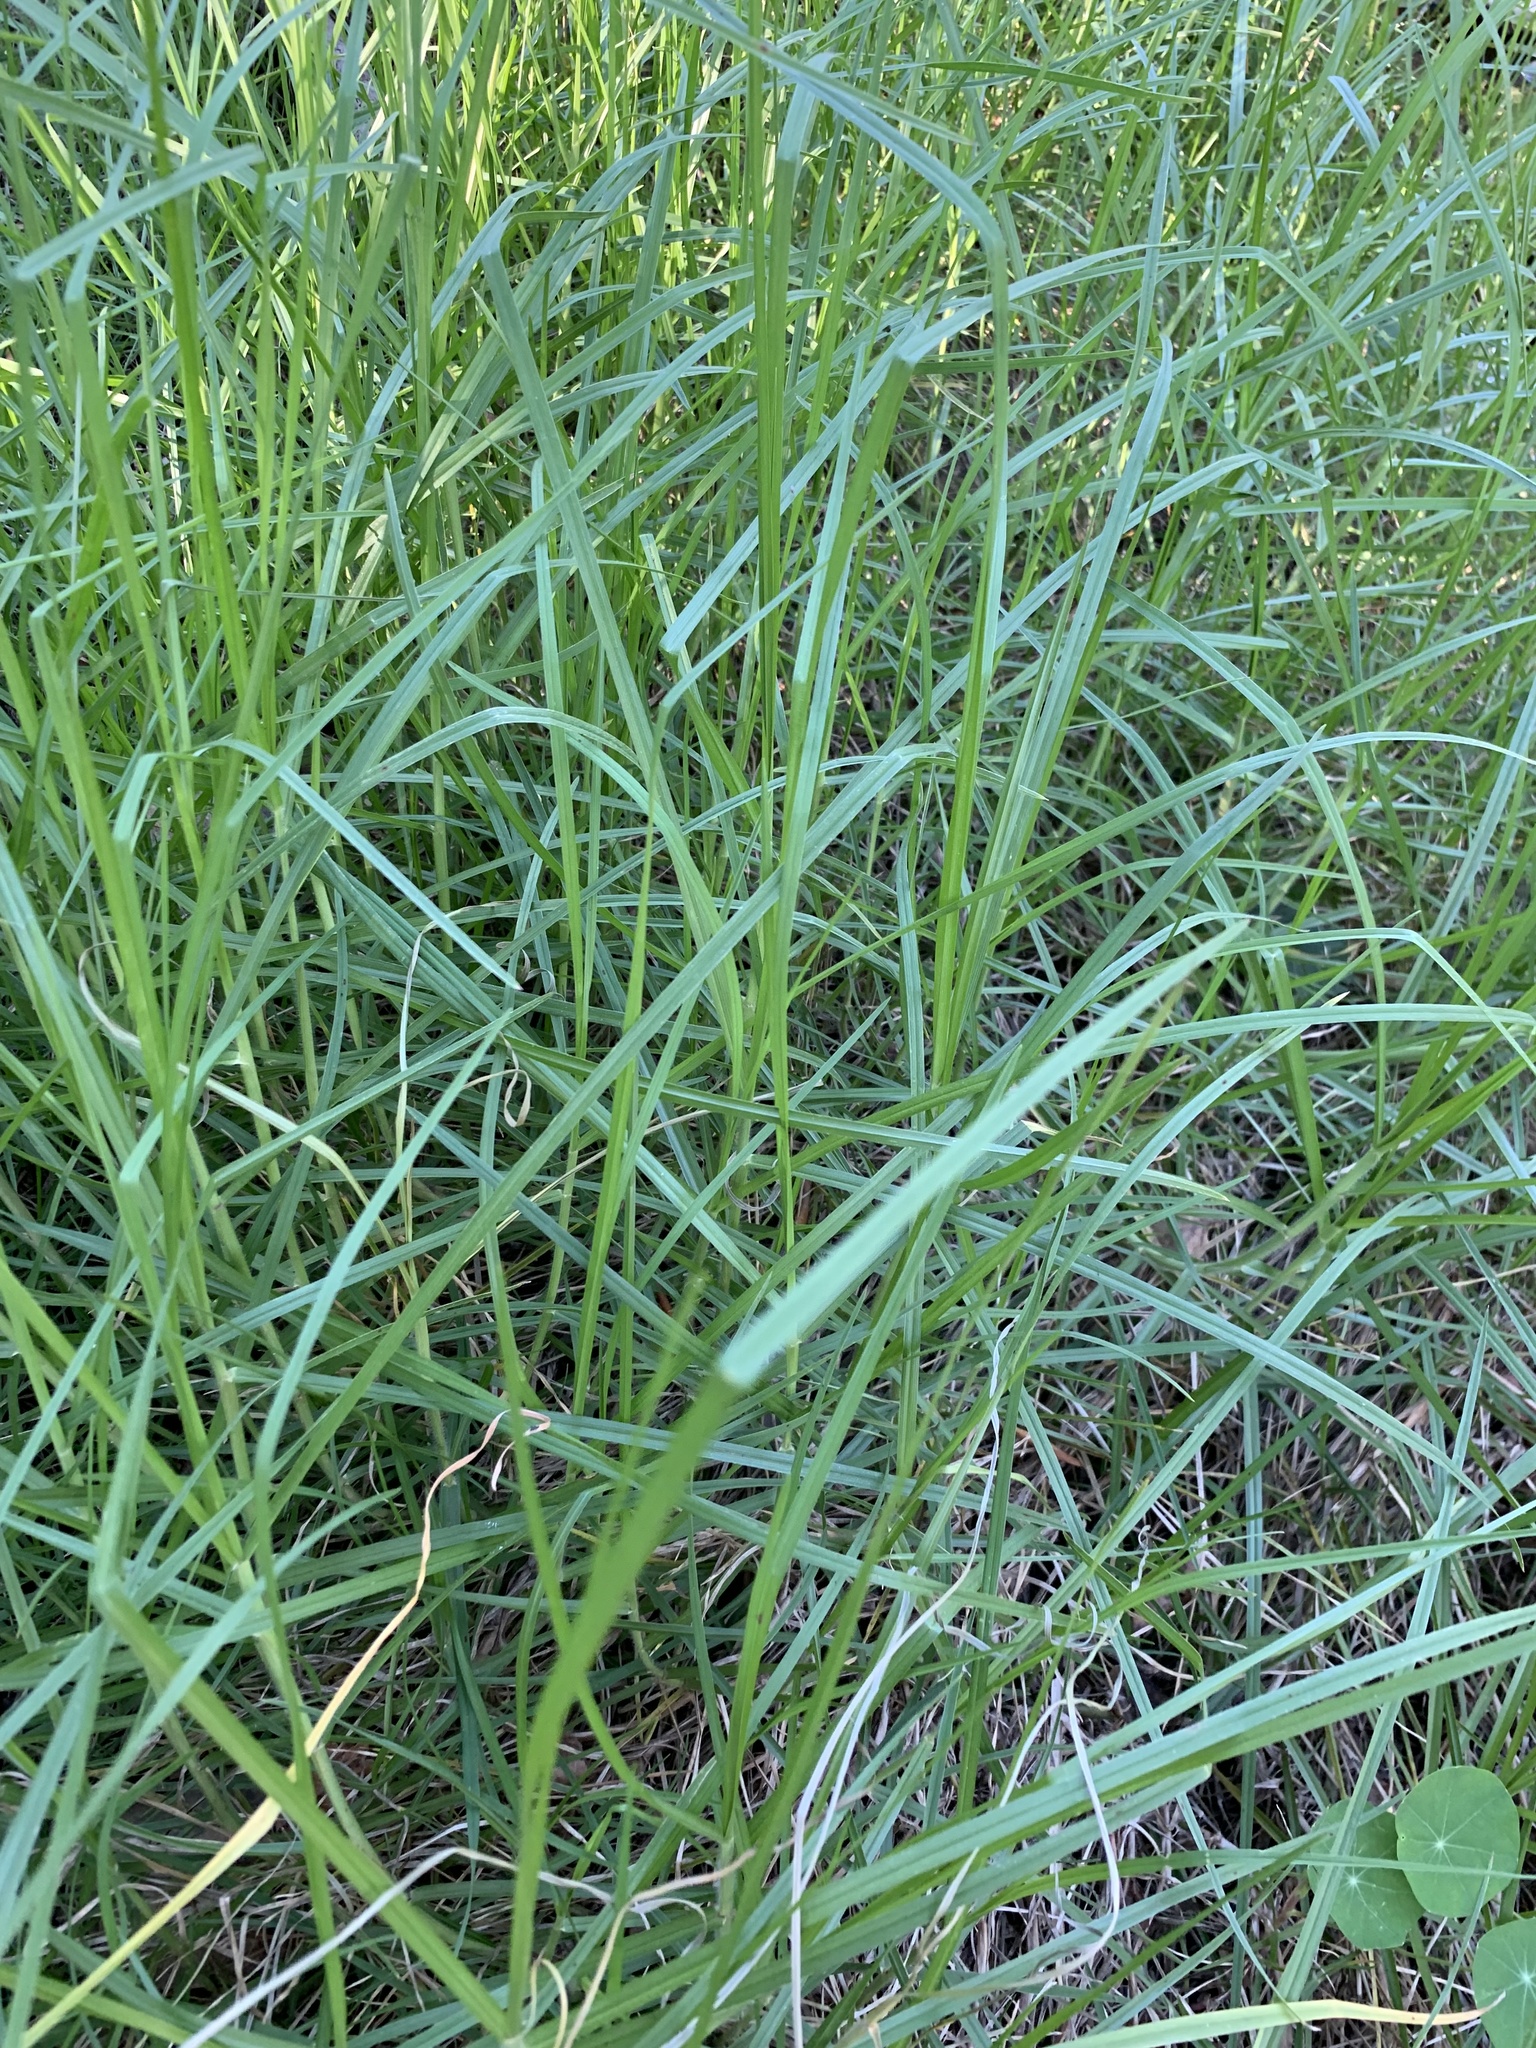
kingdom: Plantae
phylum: Tracheophyta
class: Liliopsida
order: Poales
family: Poaceae
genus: Cenchrus
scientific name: Cenchrus clandestinus
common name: Kikuyugrass
